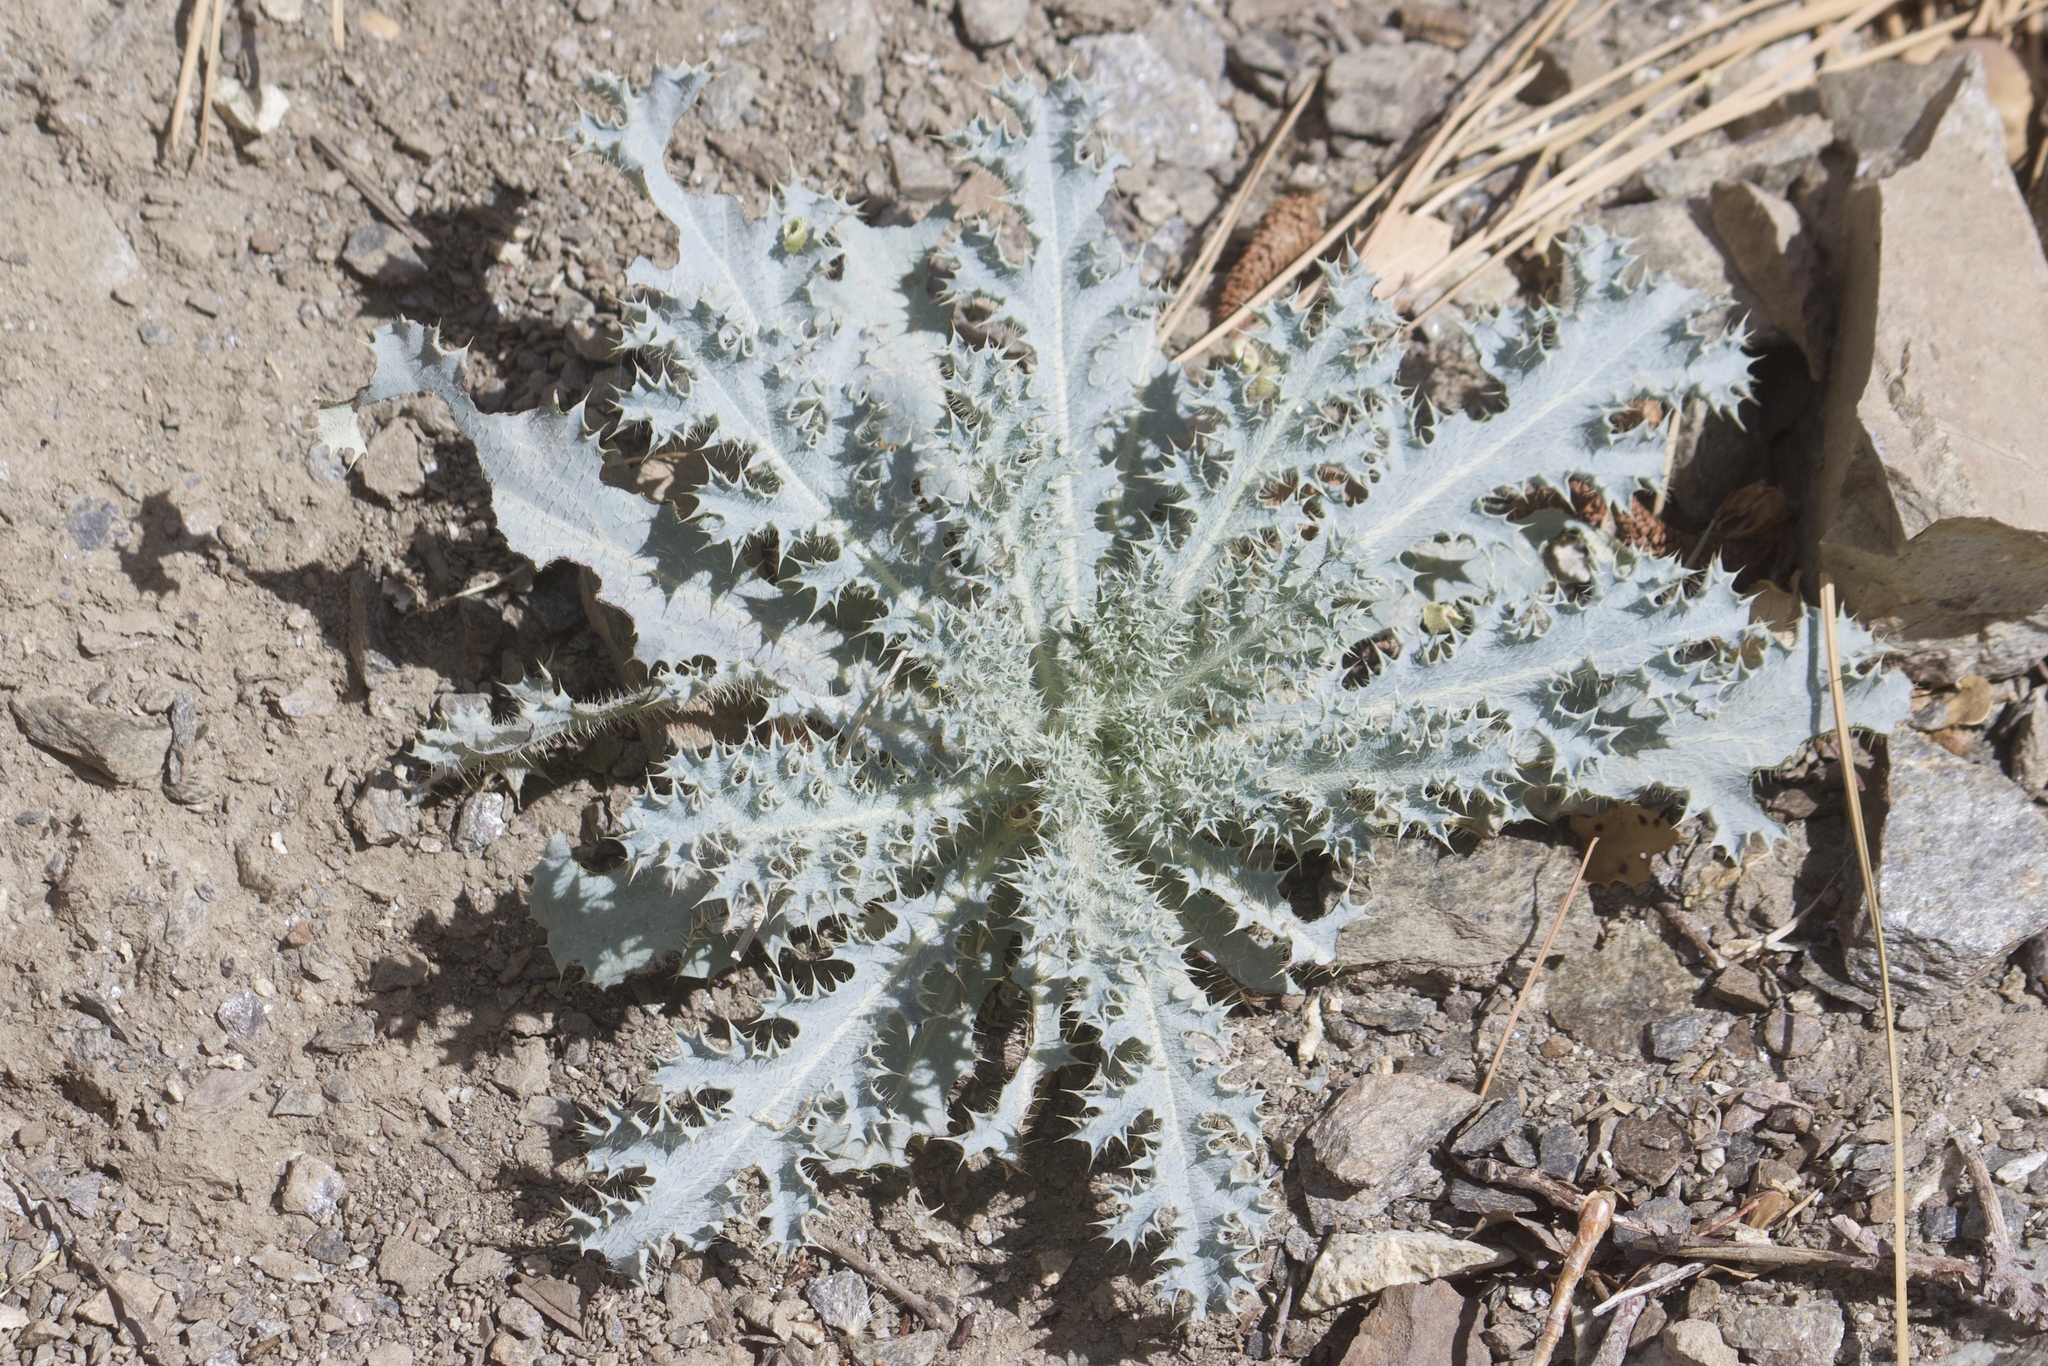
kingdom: Plantae
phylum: Tracheophyta
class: Magnoliopsida
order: Ranunculales
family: Papaveraceae
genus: Argemone
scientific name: Argemone munita
